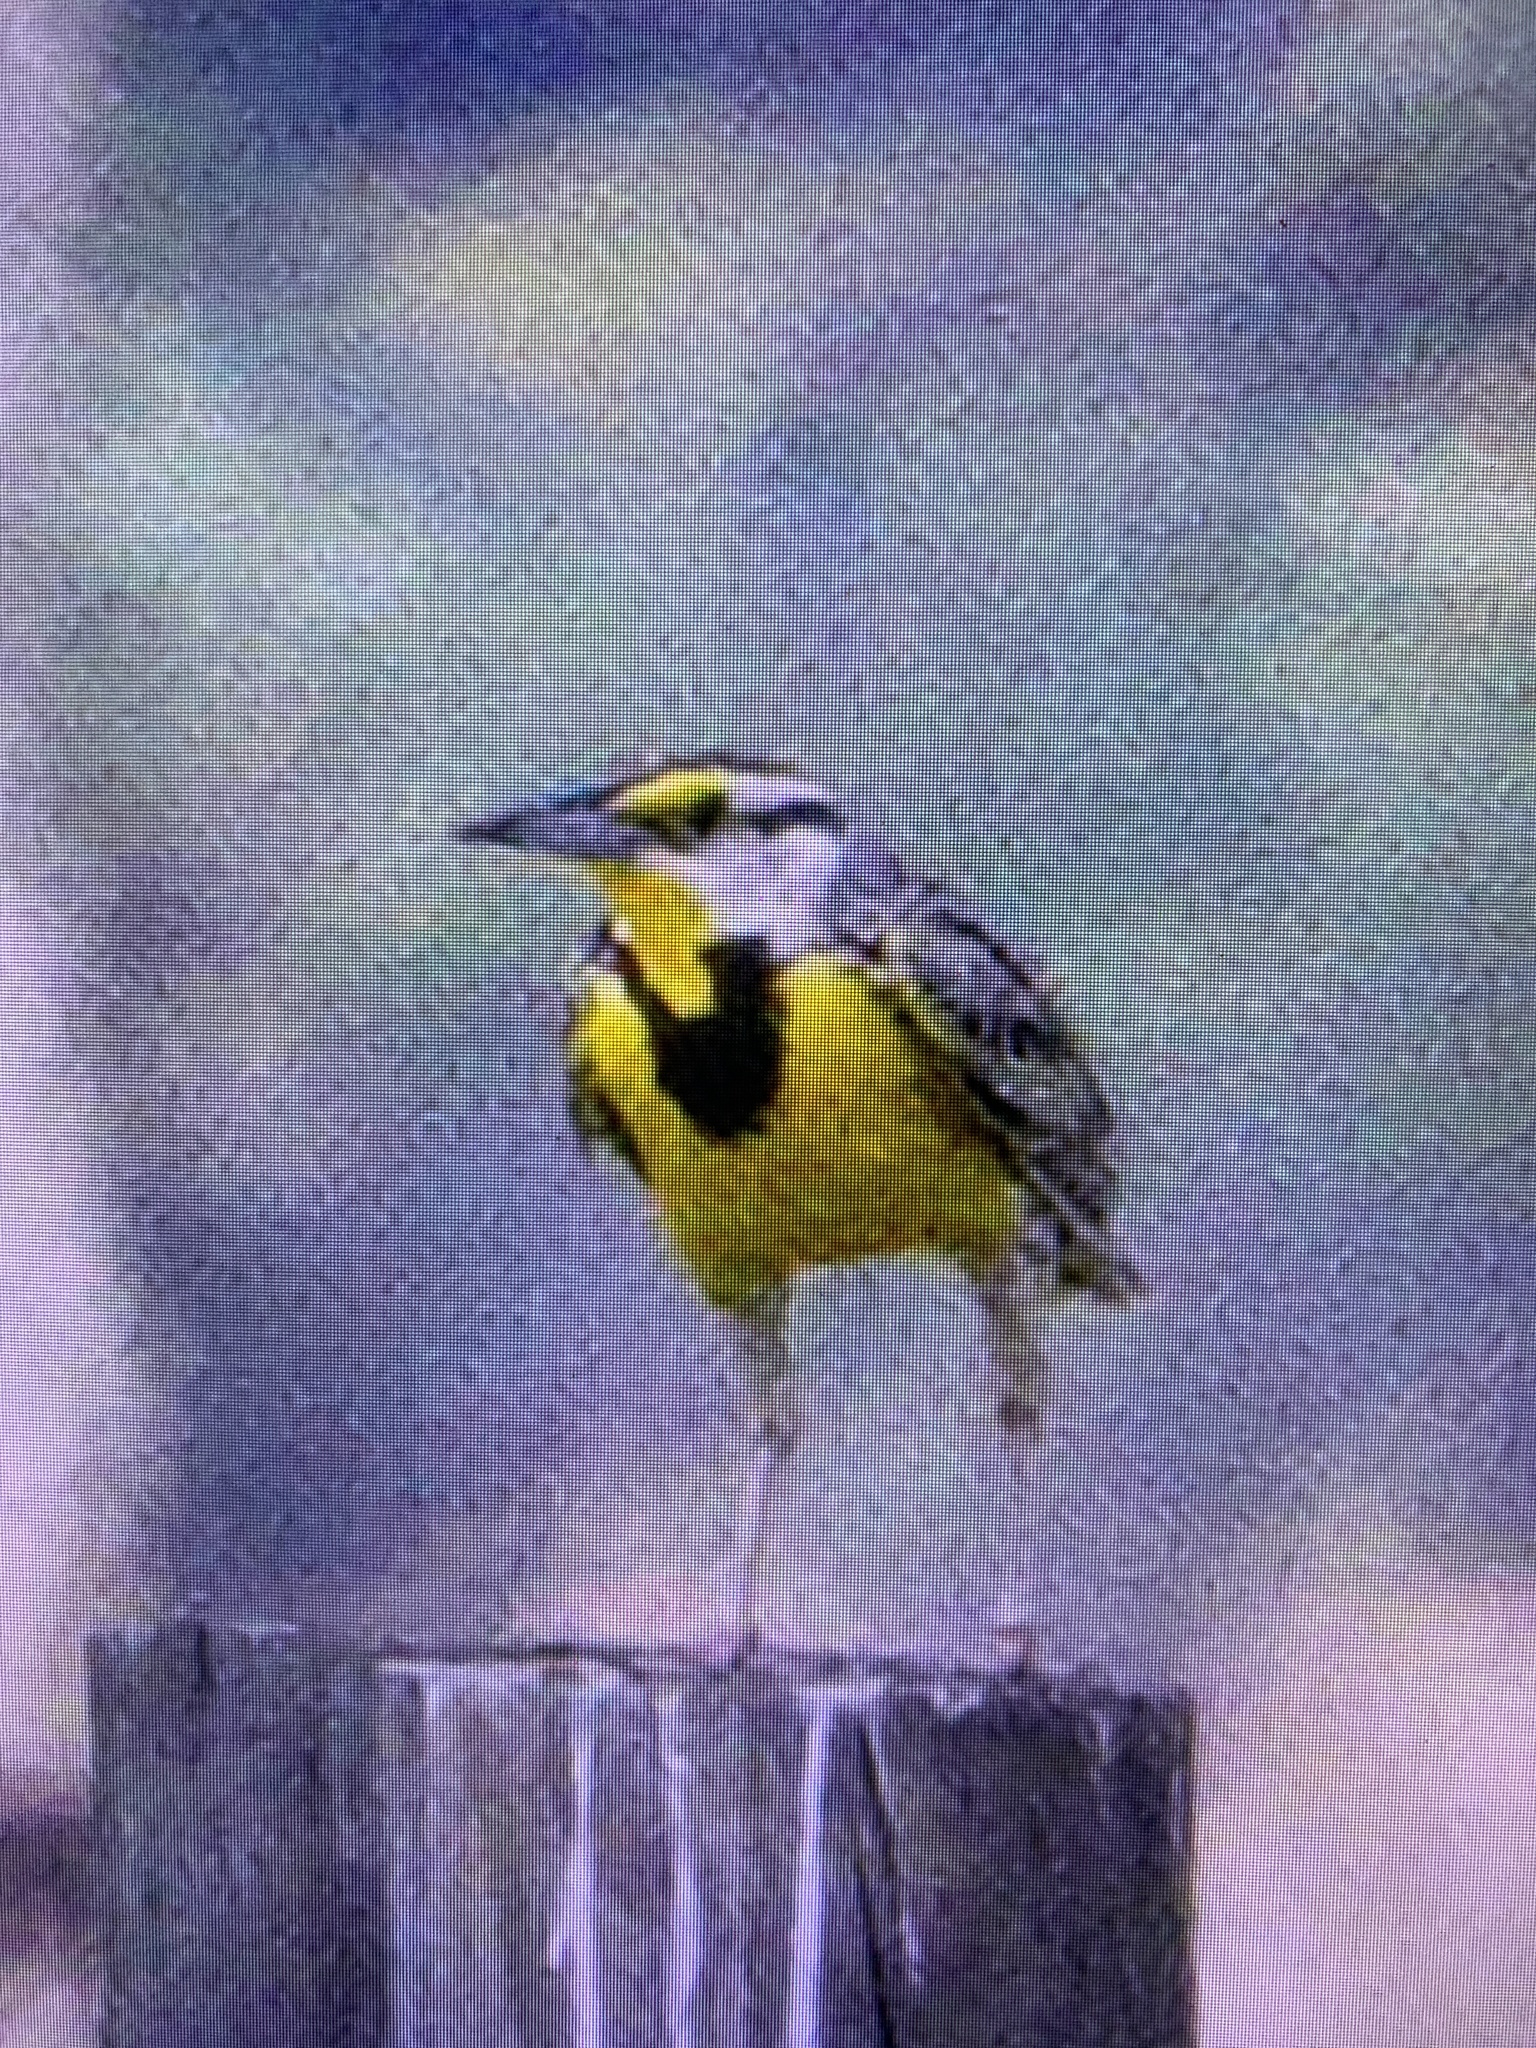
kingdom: Animalia
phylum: Chordata
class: Aves
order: Passeriformes
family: Icteridae
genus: Sturnella
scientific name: Sturnella magna
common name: Eastern meadowlark
